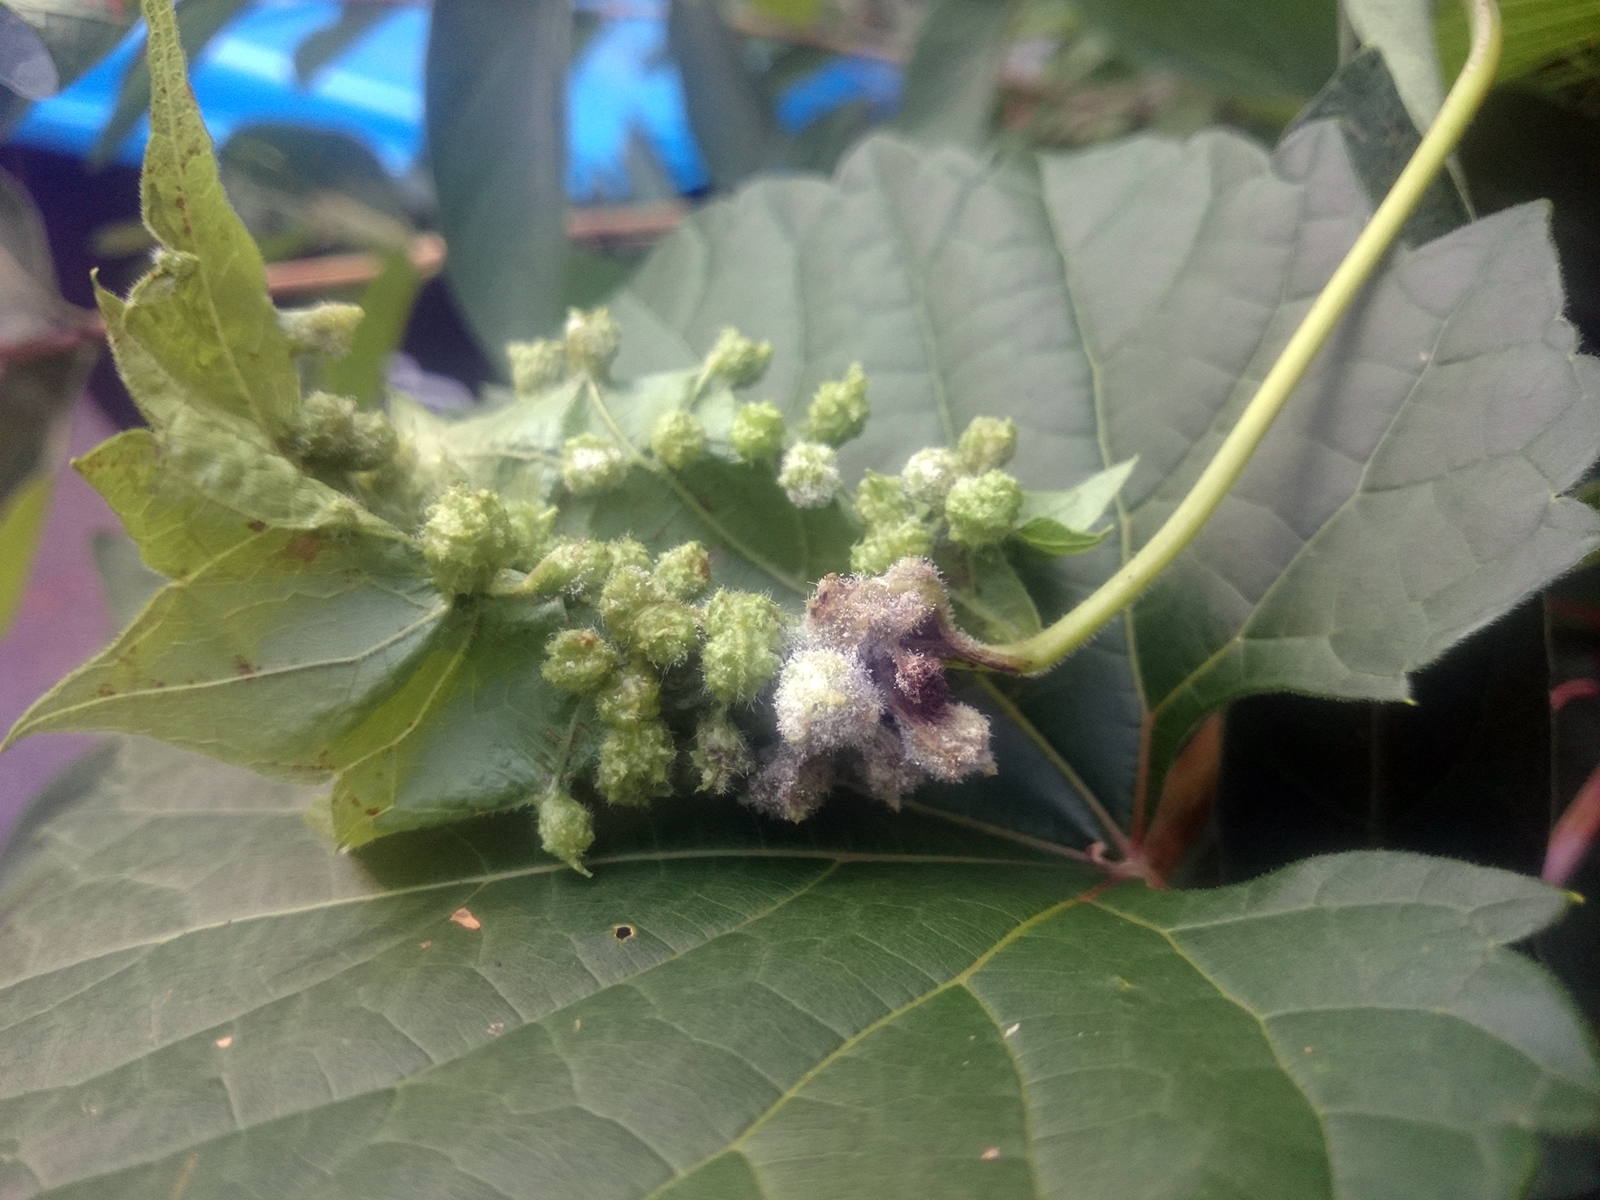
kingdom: Animalia
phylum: Arthropoda
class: Insecta
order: Hemiptera
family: Phylloxeridae
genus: Daktulosphaira
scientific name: Daktulosphaira vitifoliae
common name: Grape phylloxera
